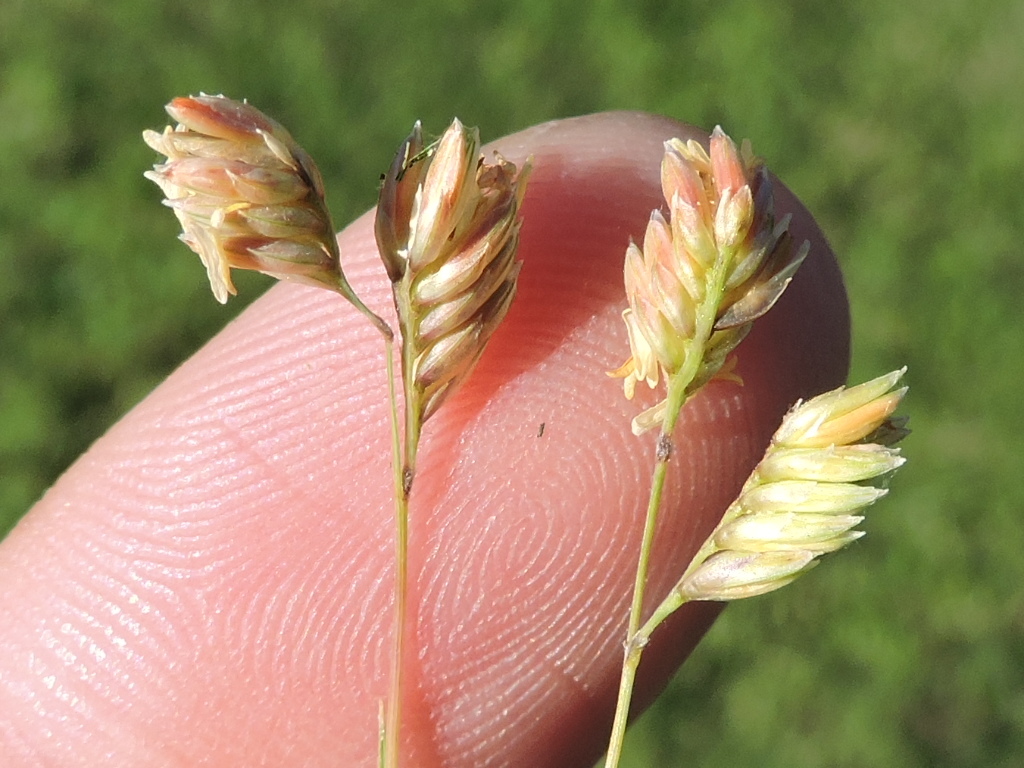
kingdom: Plantae
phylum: Tracheophyta
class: Liliopsida
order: Poales
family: Poaceae
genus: Bouteloua
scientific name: Bouteloua dactyloides
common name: Buffalo grass
